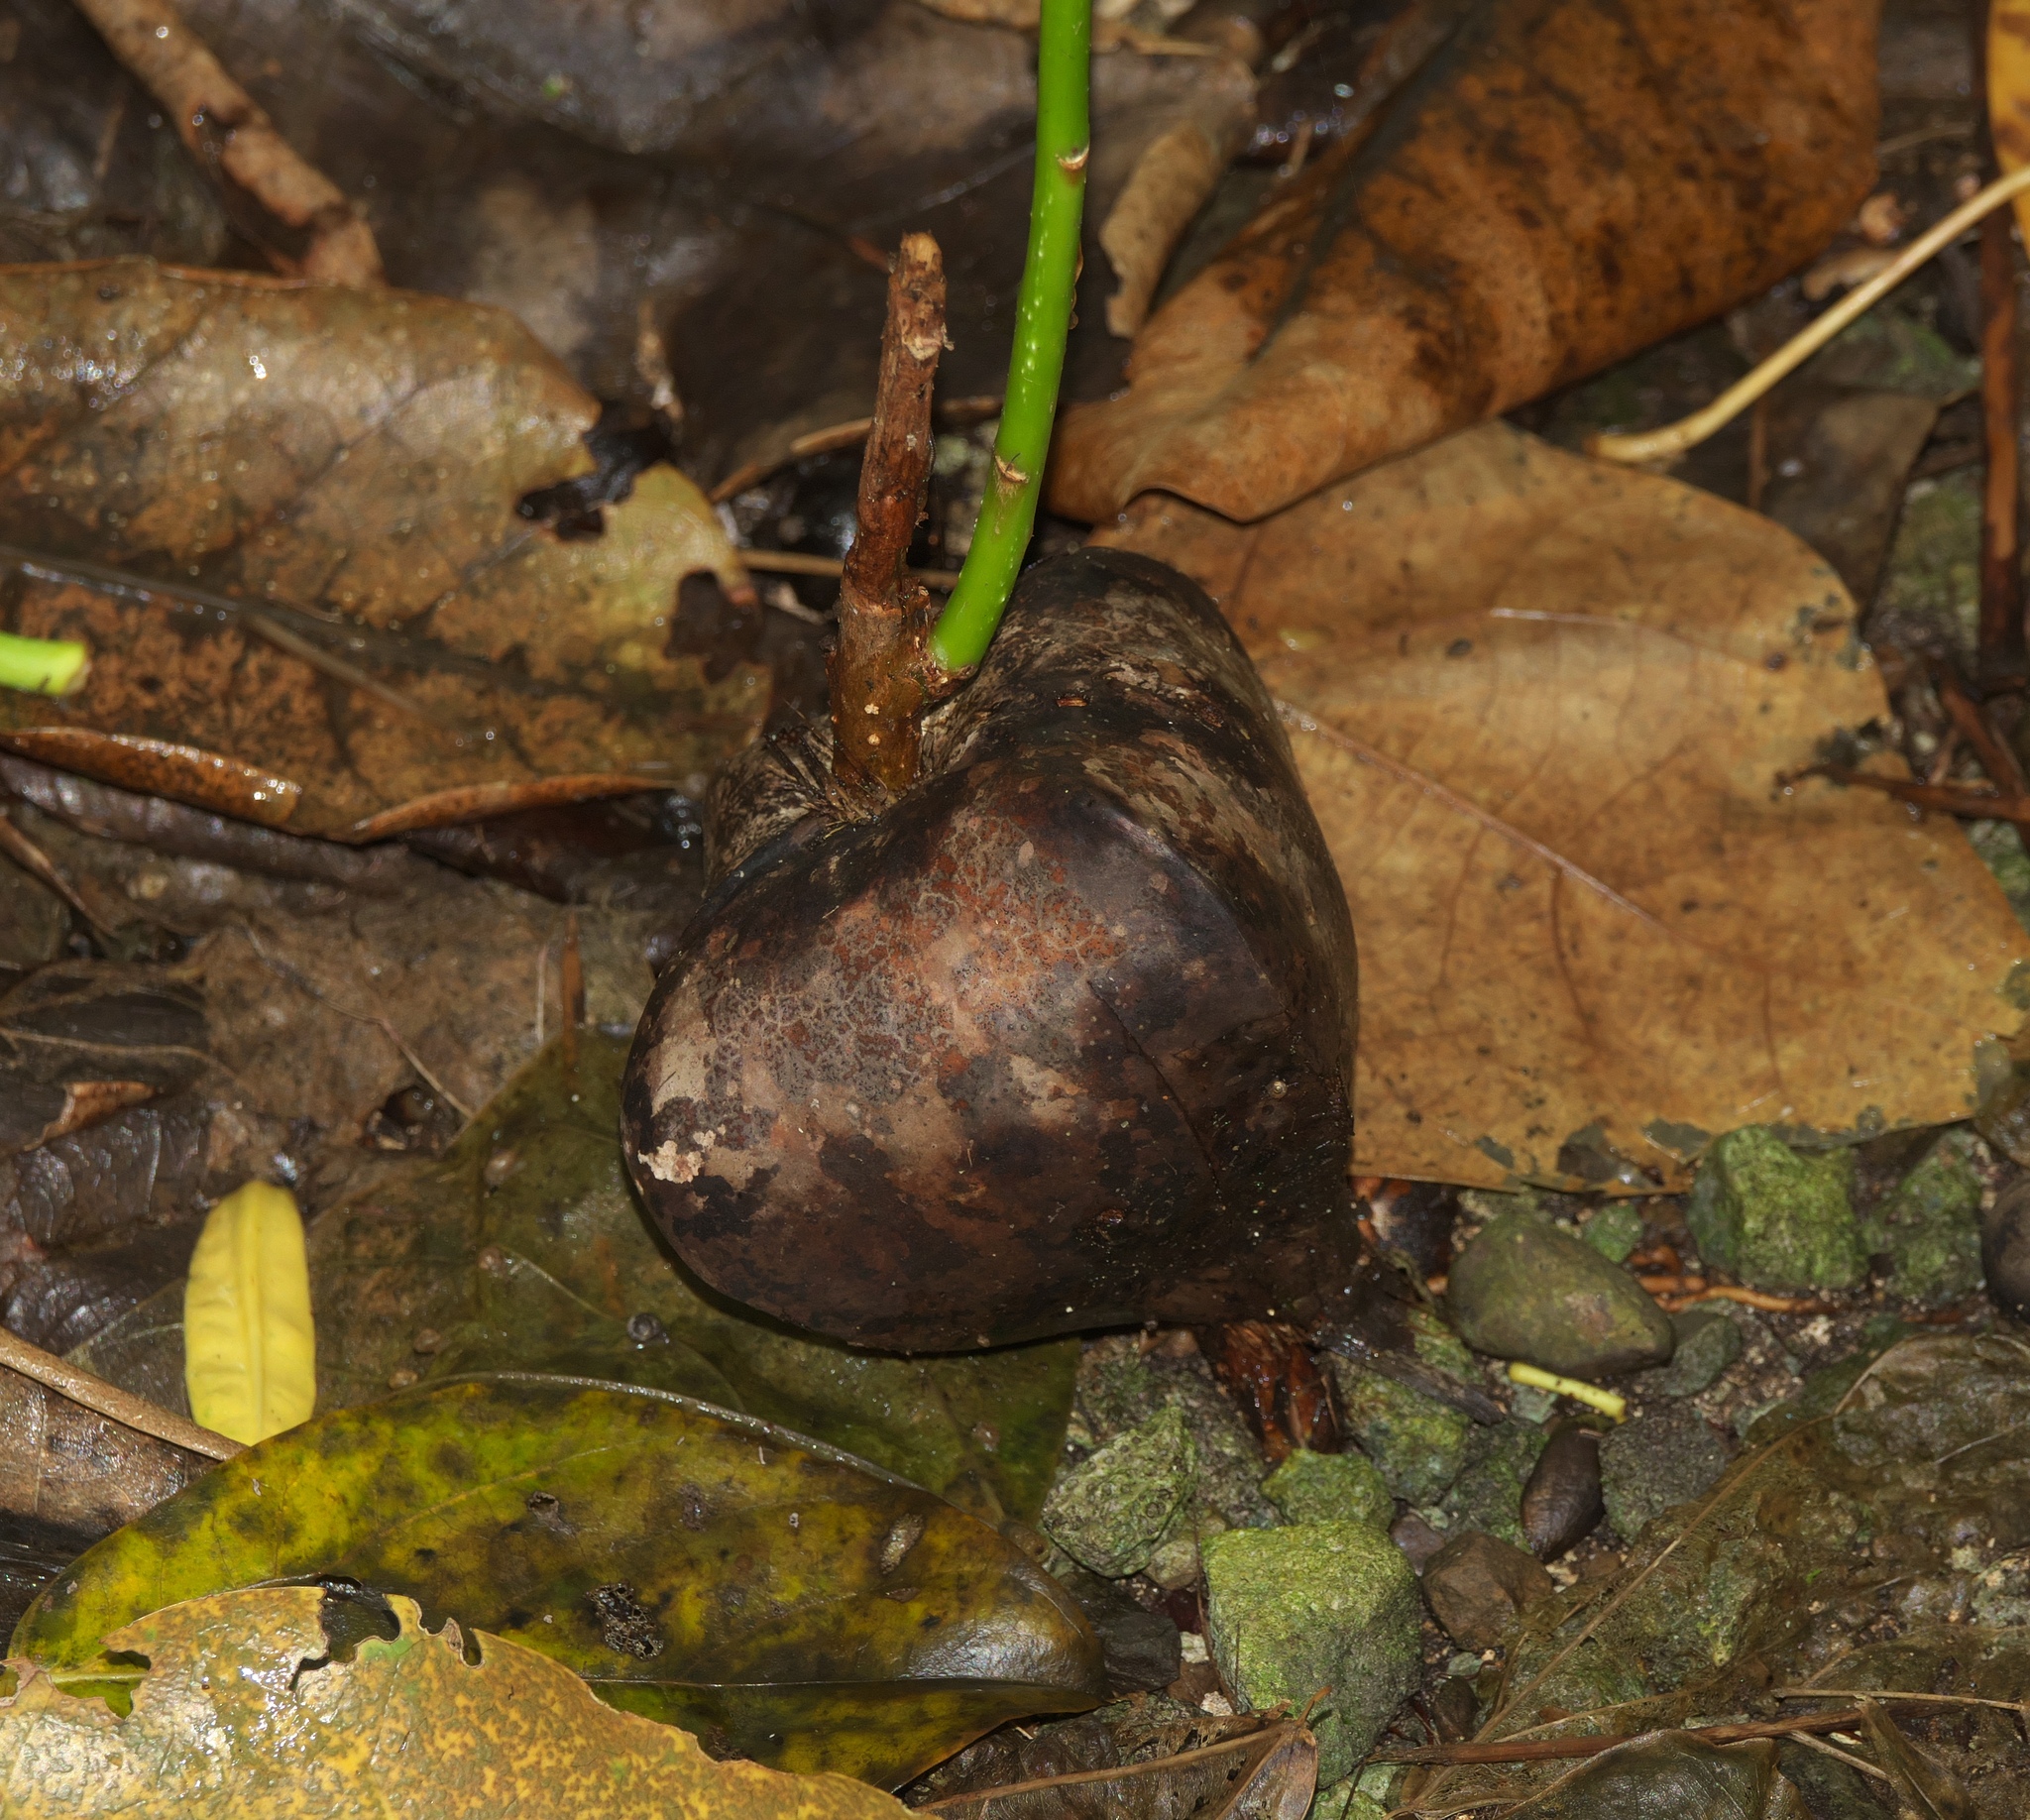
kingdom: Plantae
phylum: Tracheophyta
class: Magnoliopsida
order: Ericales
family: Lecythidaceae
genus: Barringtonia
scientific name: Barringtonia asiatica
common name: Mango-pine
